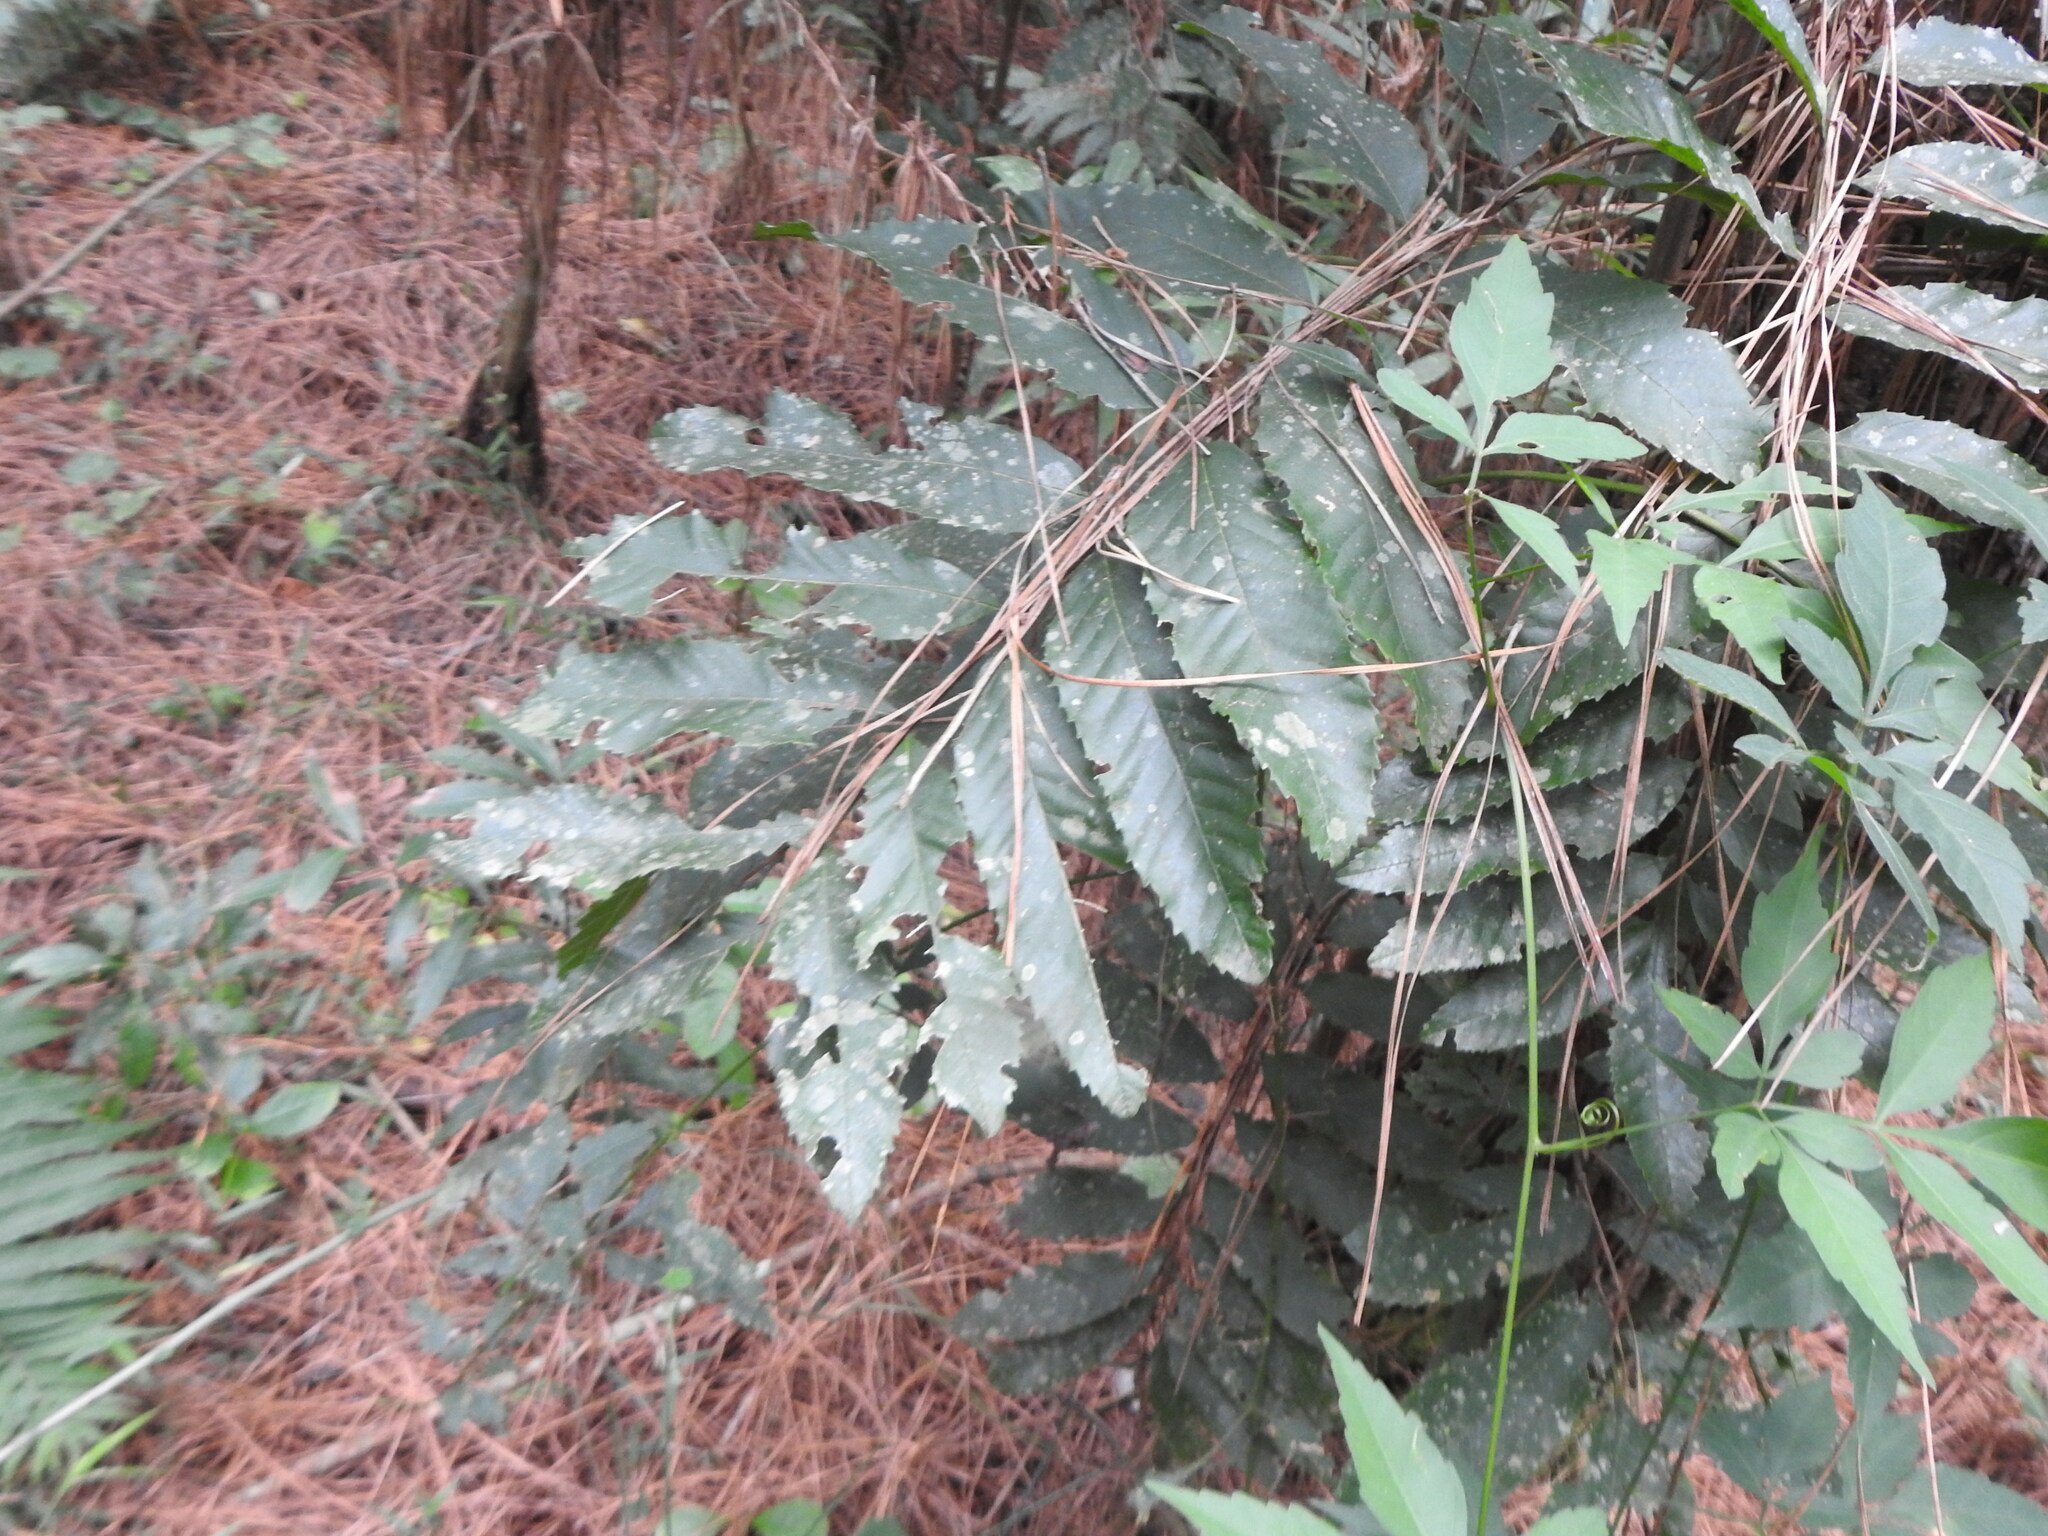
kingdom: Plantae
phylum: Tracheophyta
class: Magnoliopsida
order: Sapindales
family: Sapindaceae
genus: Cupania
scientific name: Cupania vernalis
